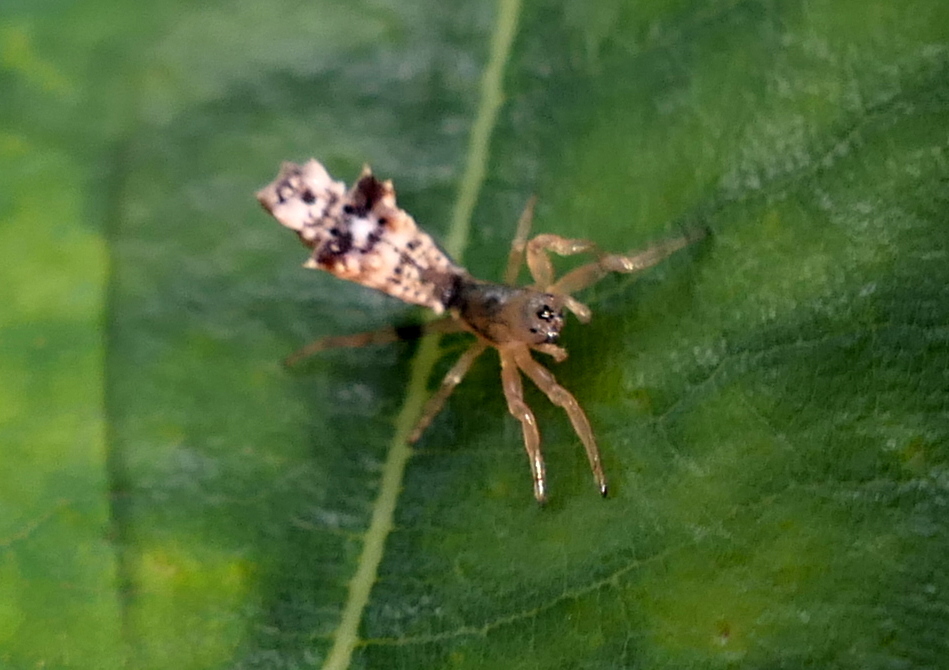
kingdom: Animalia
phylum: Arthropoda
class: Arachnida
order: Araneae
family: Araneidae
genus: Micrathena
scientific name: Micrathena horrida
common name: Orb weavers
